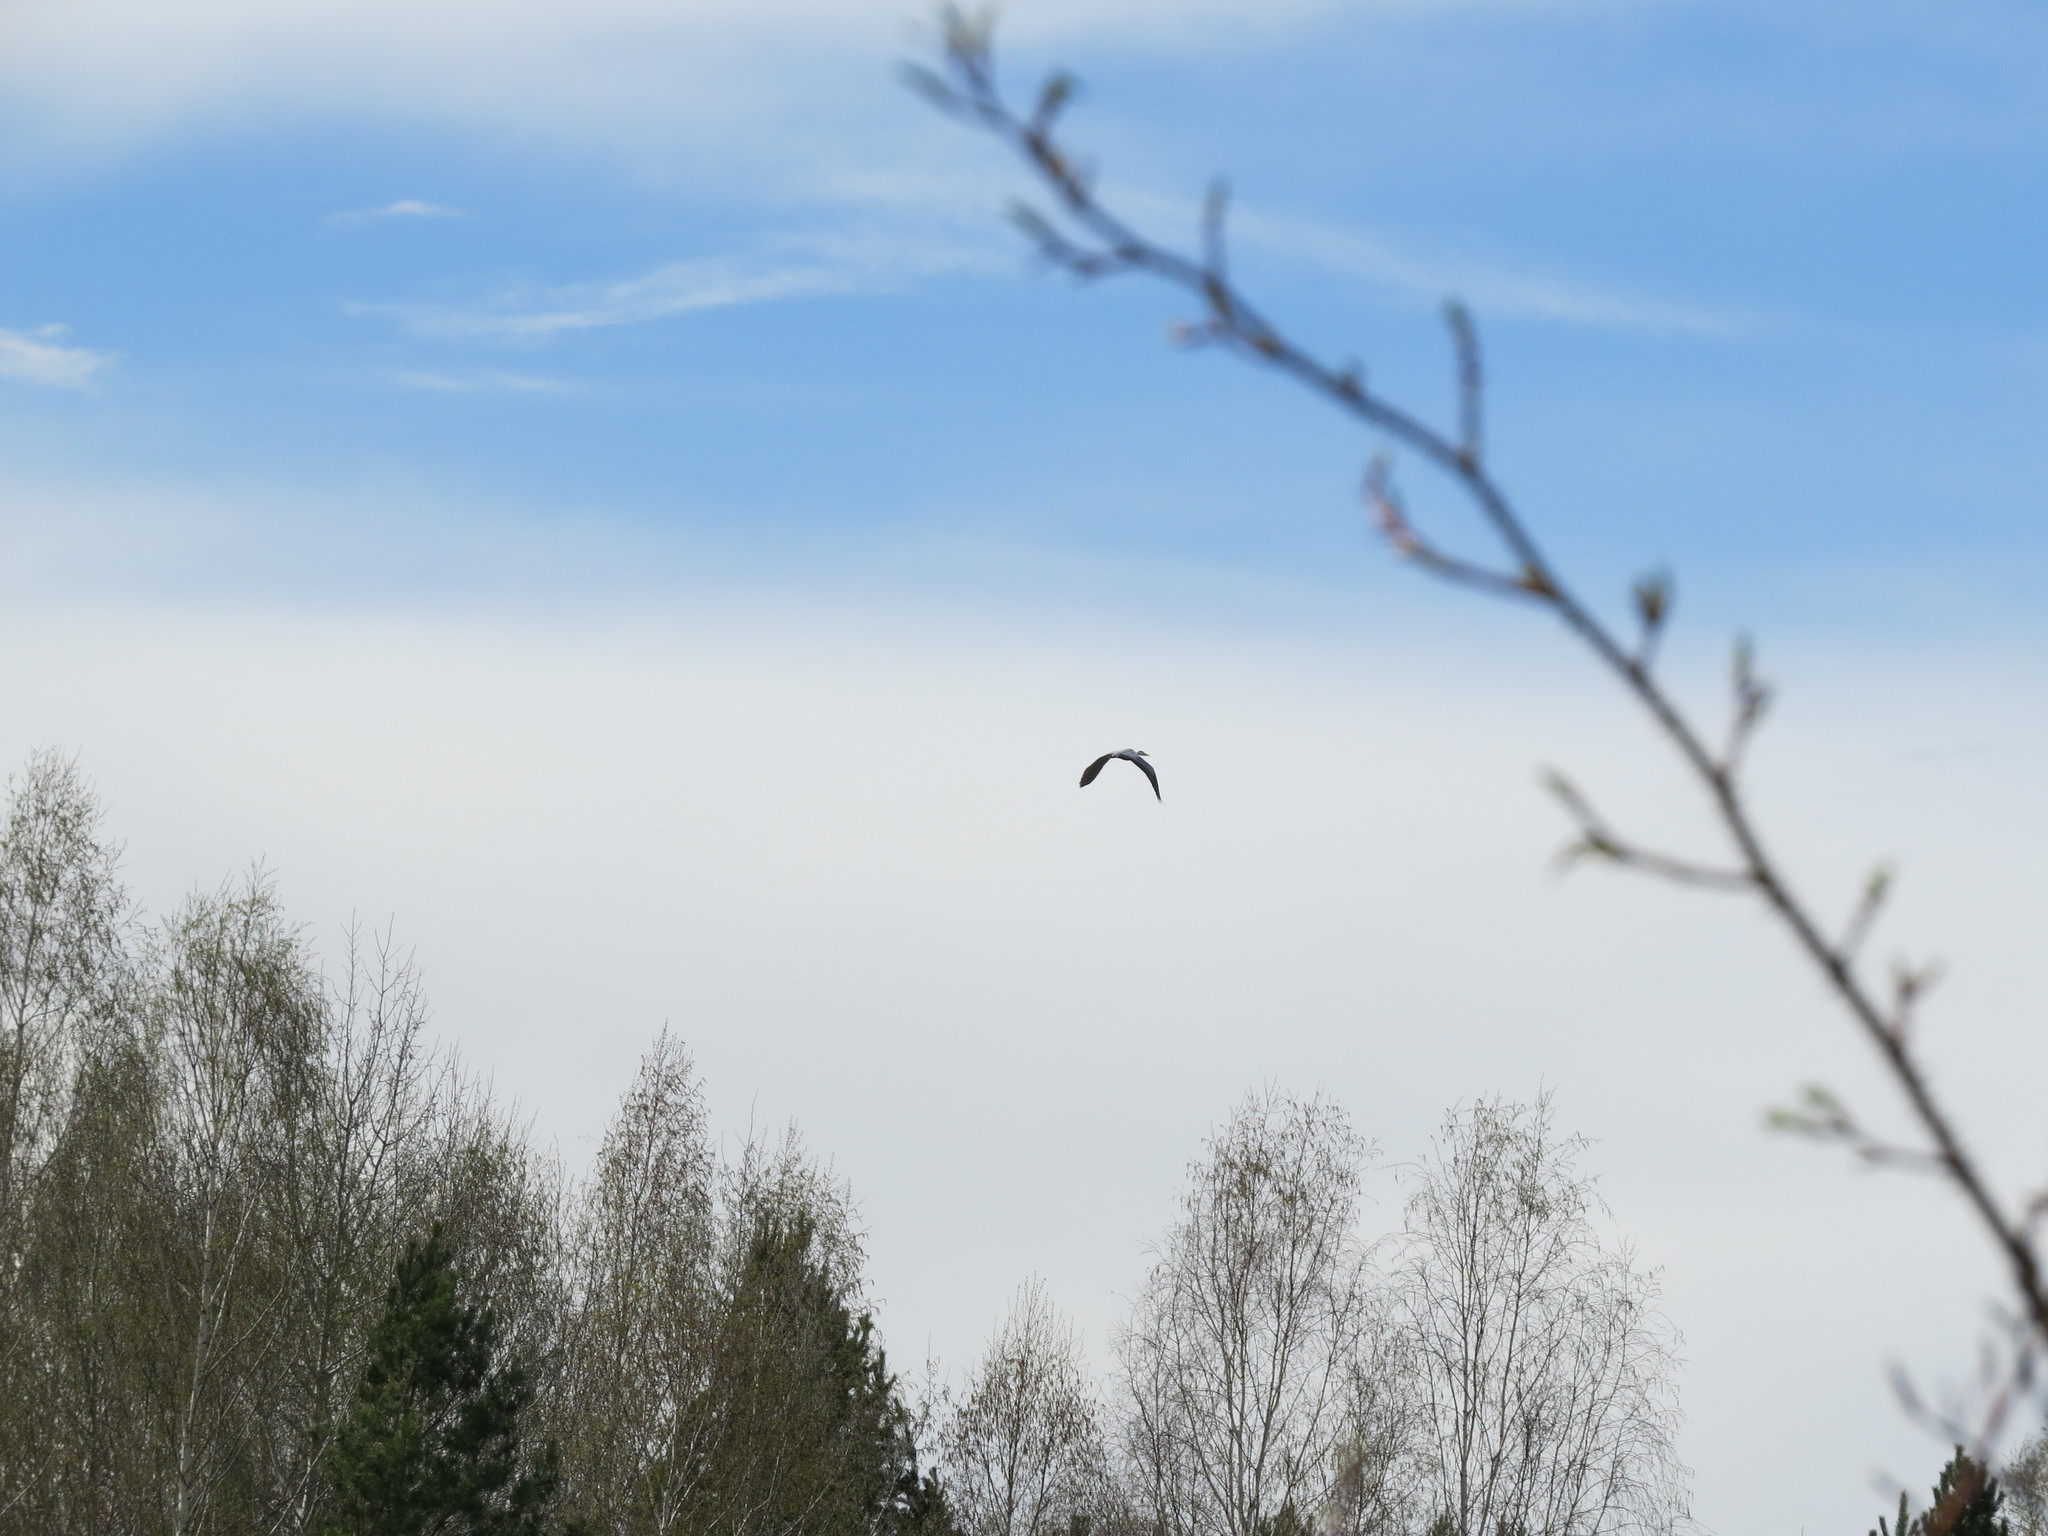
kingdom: Animalia
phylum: Chordata
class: Aves
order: Pelecaniformes
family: Ardeidae
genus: Ardea
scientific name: Ardea cinerea
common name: Grey heron
